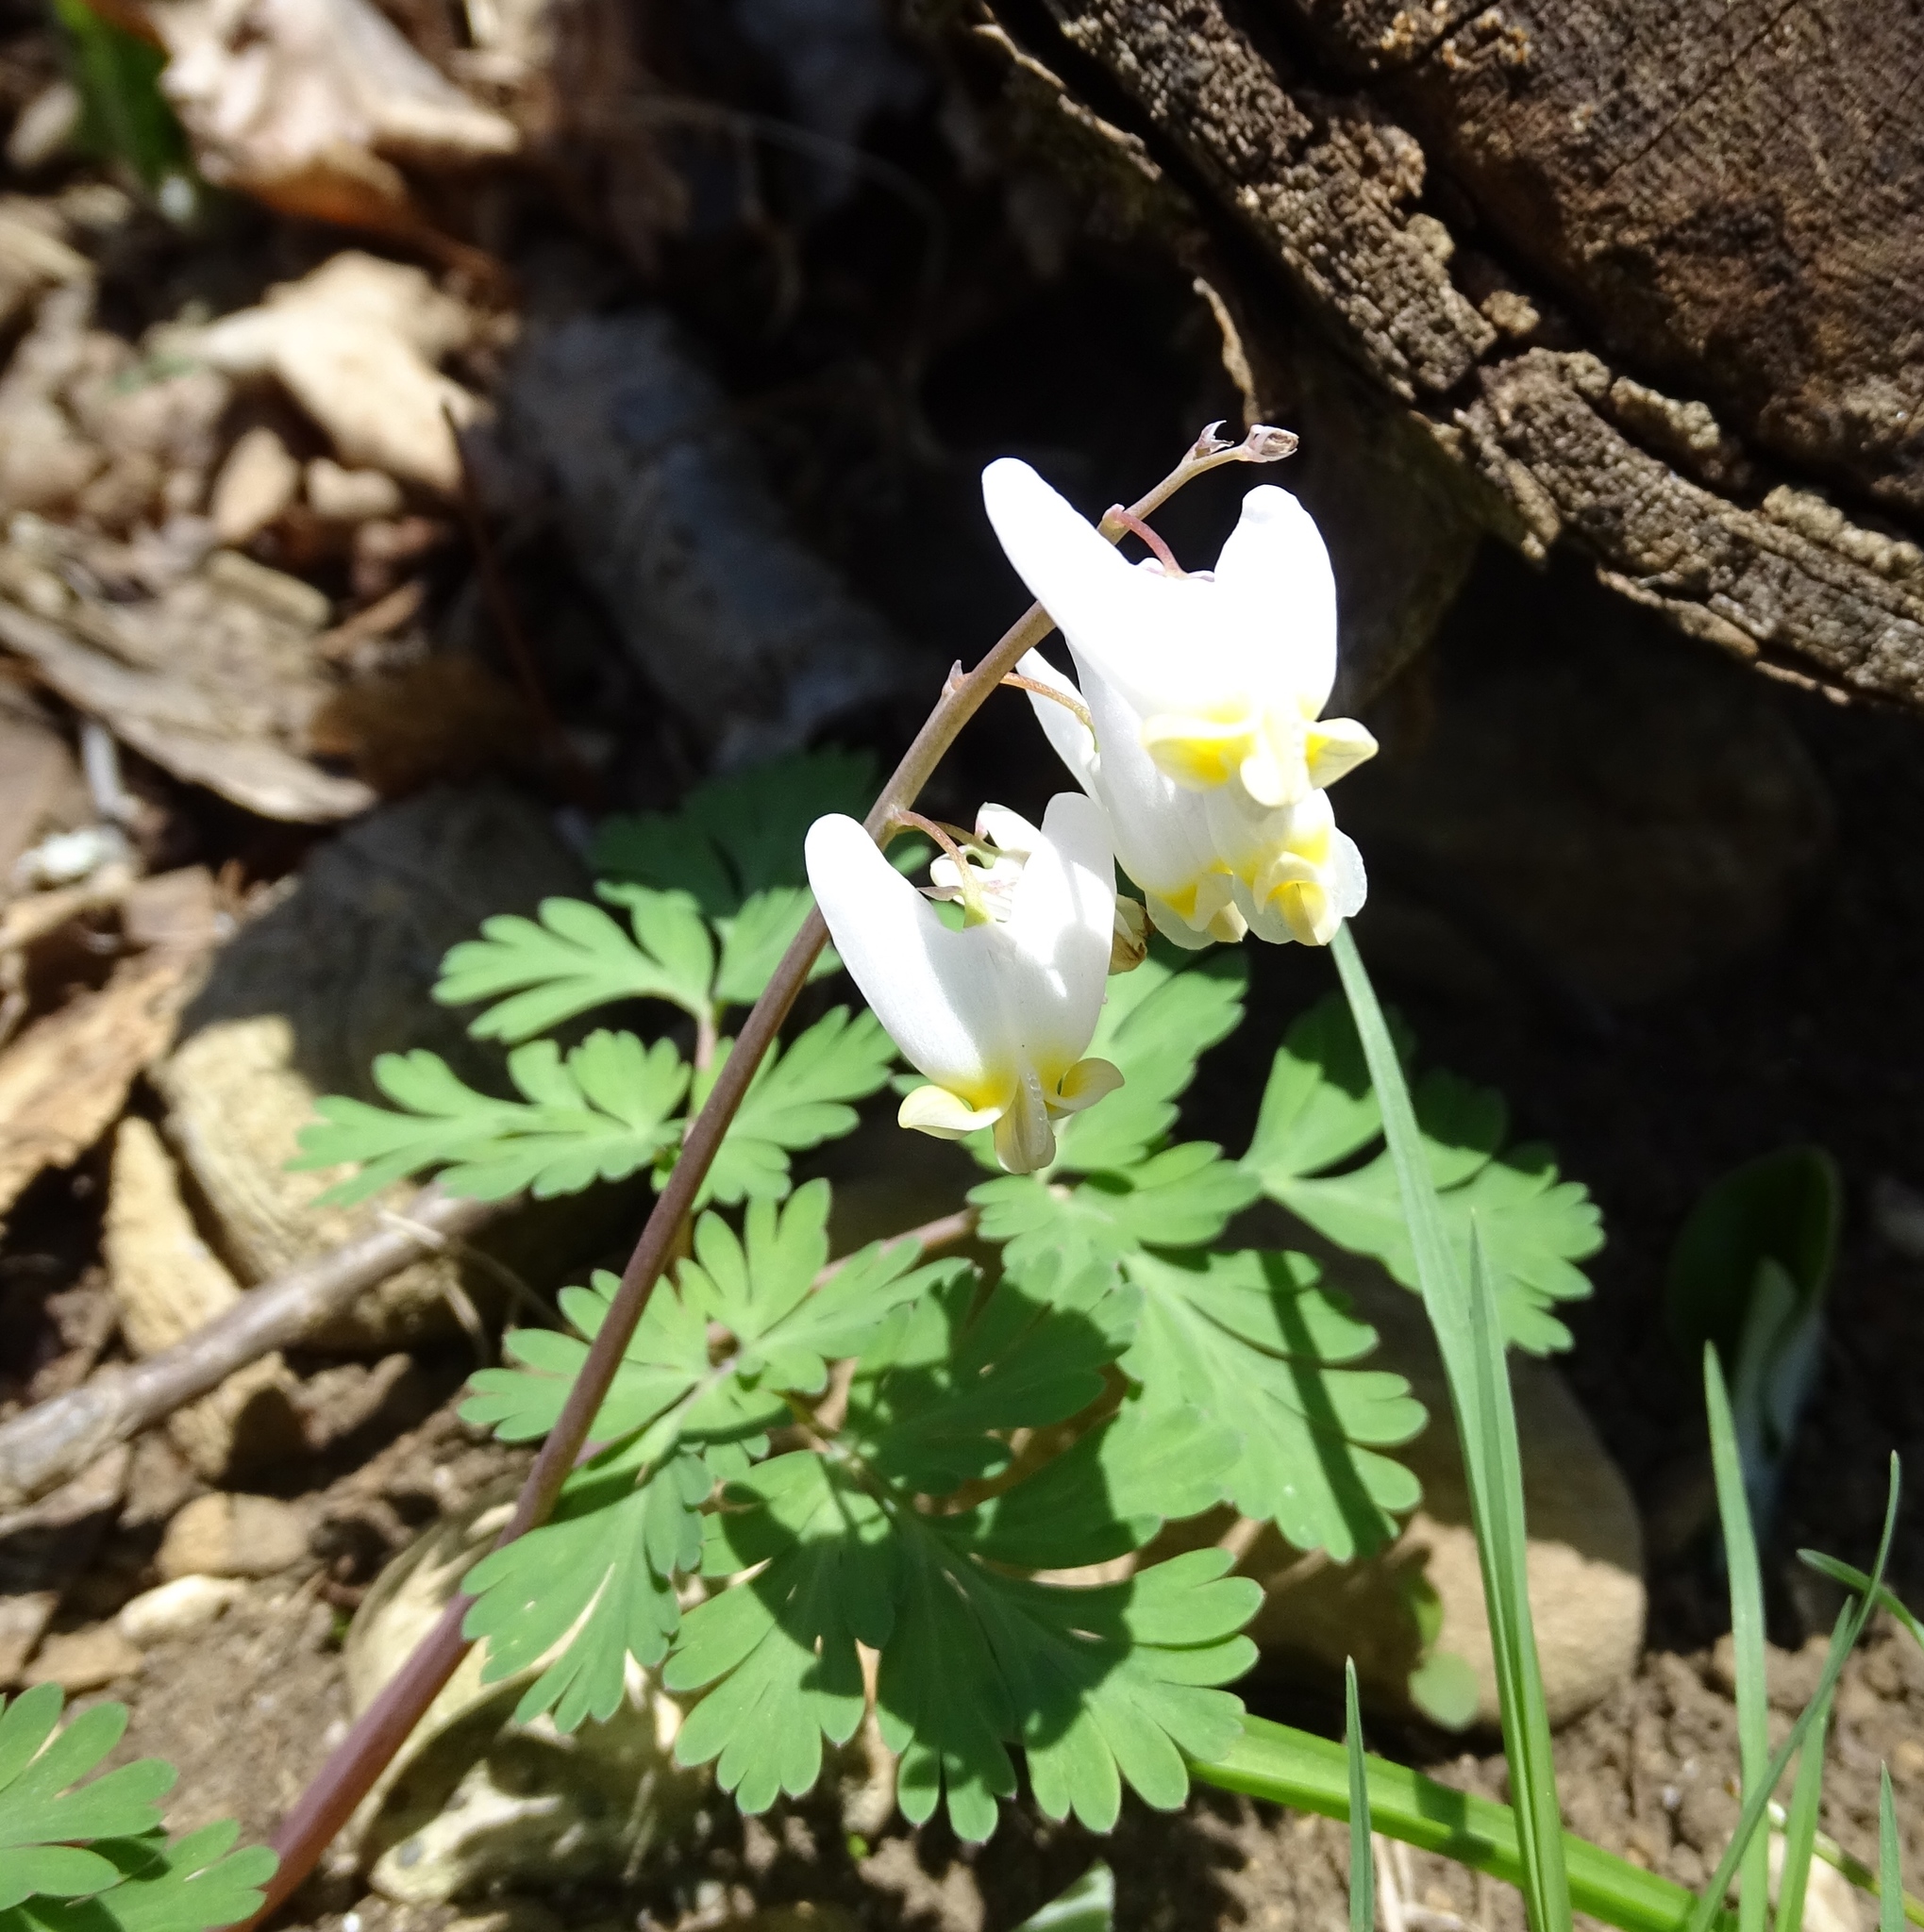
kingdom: Plantae
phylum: Tracheophyta
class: Magnoliopsida
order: Ranunculales
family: Papaveraceae
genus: Dicentra
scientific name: Dicentra cucullaria
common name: Dutchman's breeches
